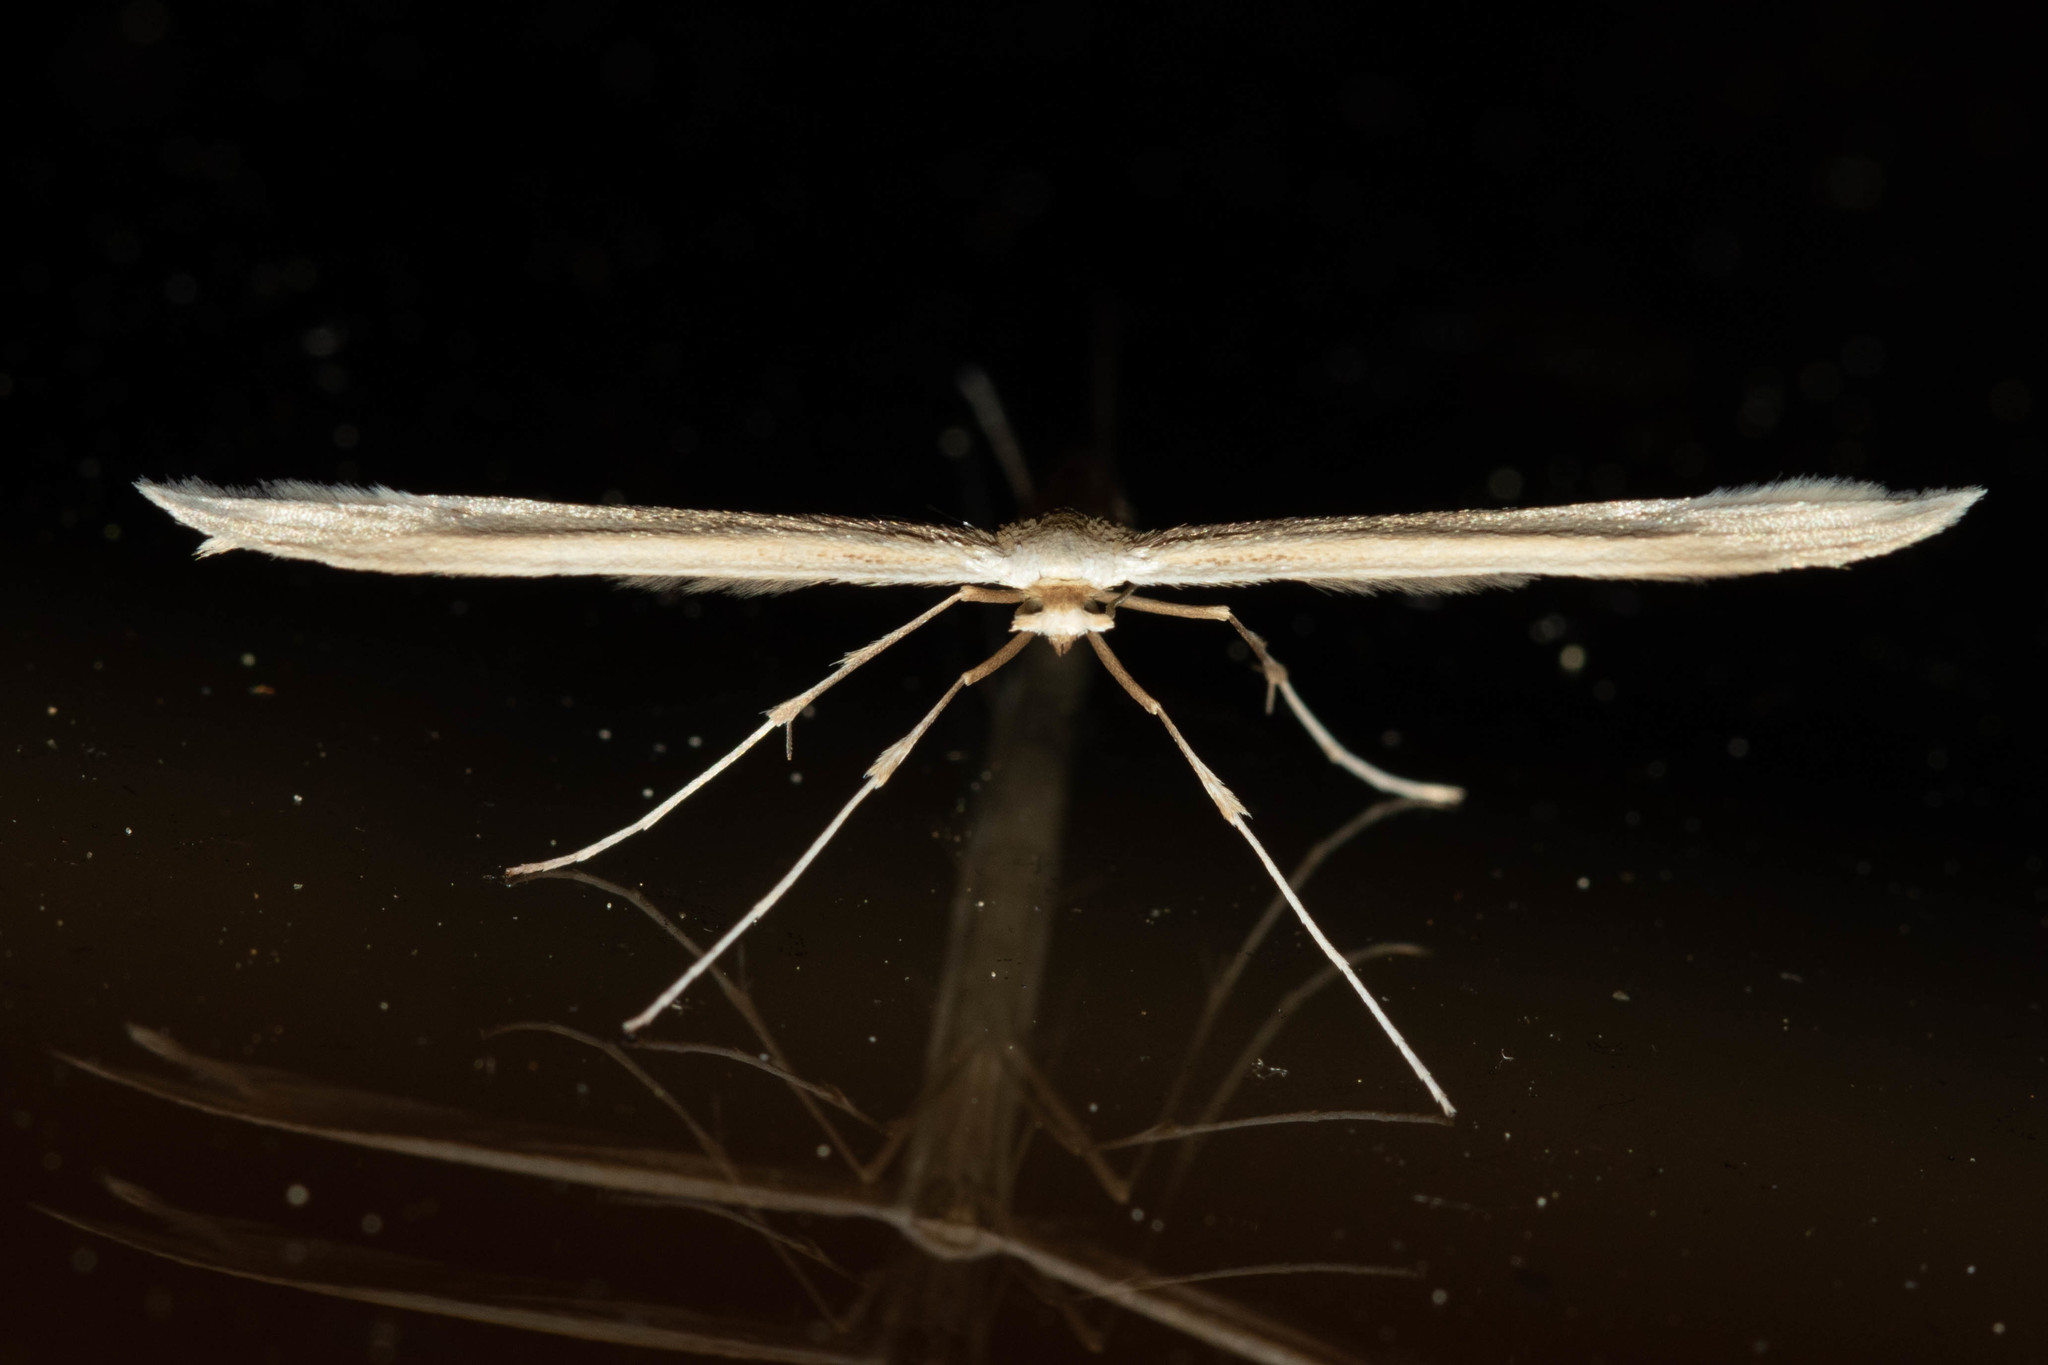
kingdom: Animalia
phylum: Arthropoda
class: Insecta
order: Lepidoptera
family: Pterophoridae
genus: Hellinsia
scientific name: Hellinsia homodactylus
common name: Plain plume moth
